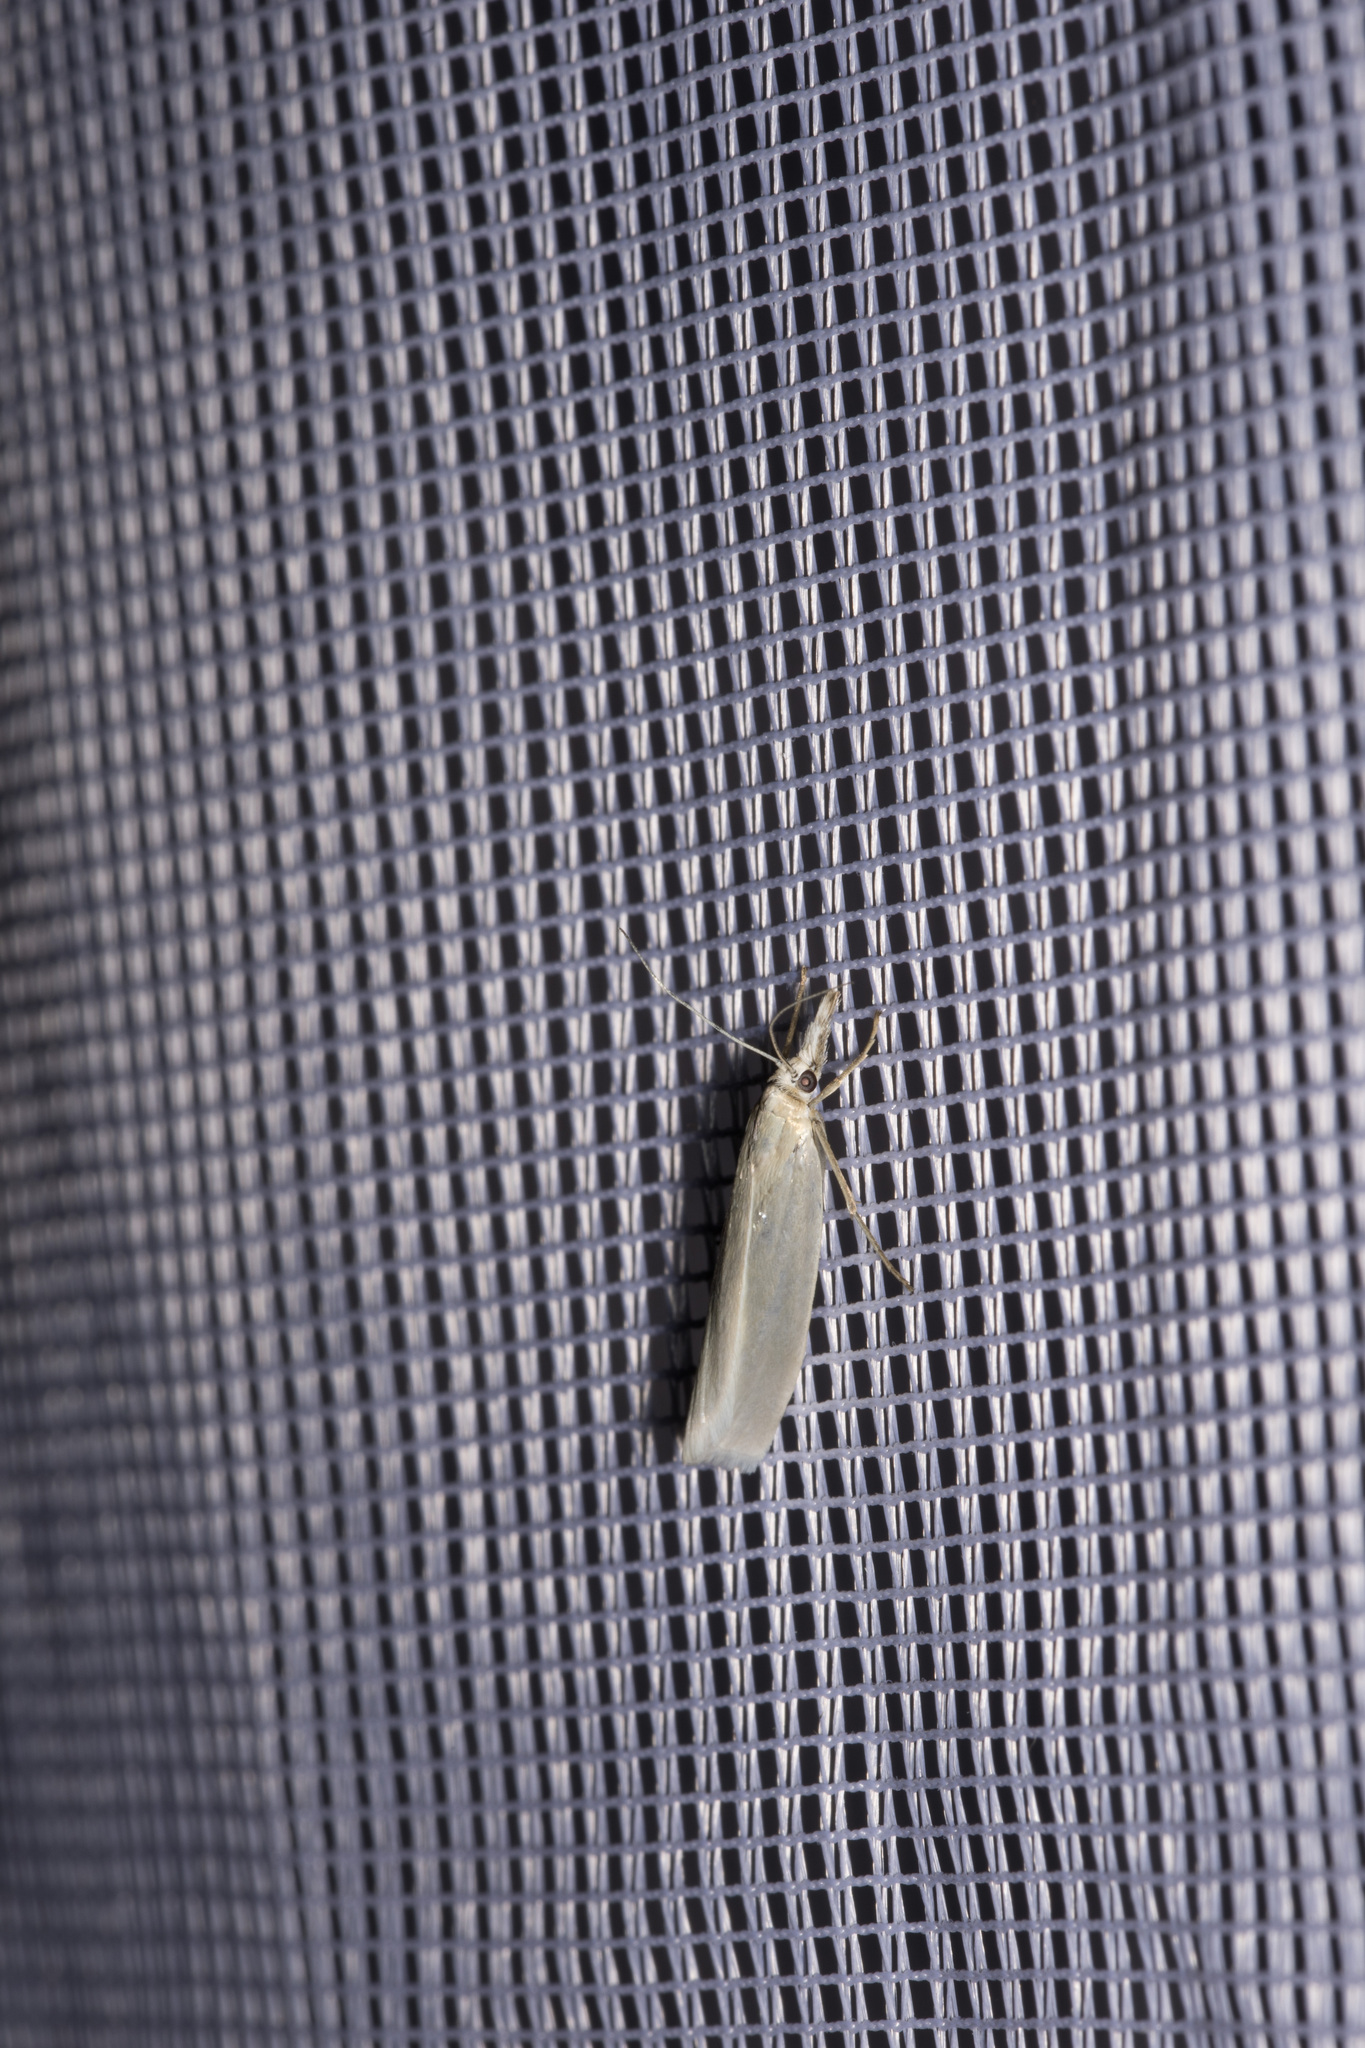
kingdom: Animalia
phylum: Arthropoda
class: Insecta
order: Lepidoptera
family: Crambidae
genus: Crambus
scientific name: Crambus perlellus
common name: Yellow satin veneer
